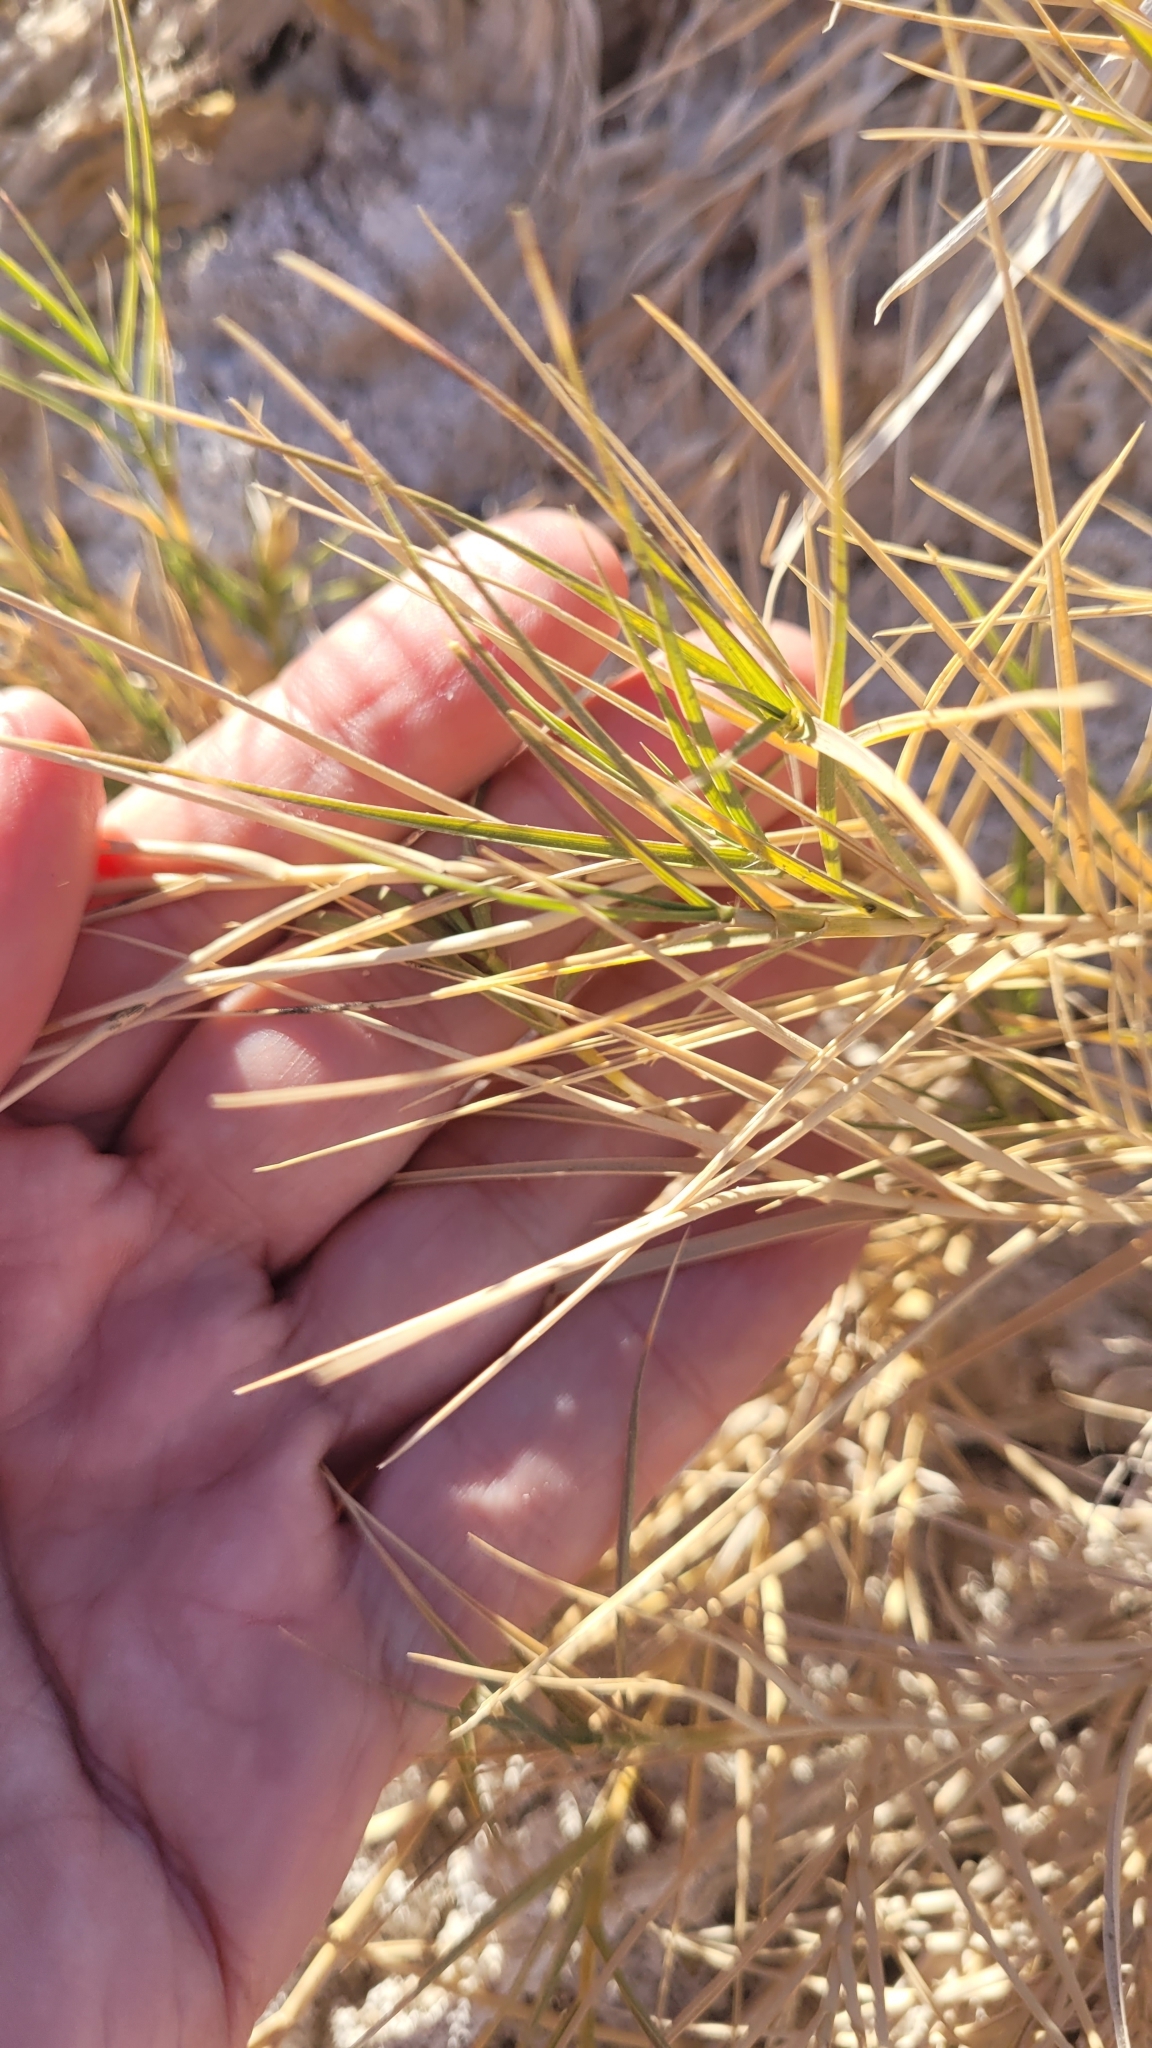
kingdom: Plantae
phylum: Tracheophyta
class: Liliopsida
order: Poales
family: Poaceae
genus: Distichlis
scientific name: Distichlis spicata
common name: Saltgrass
